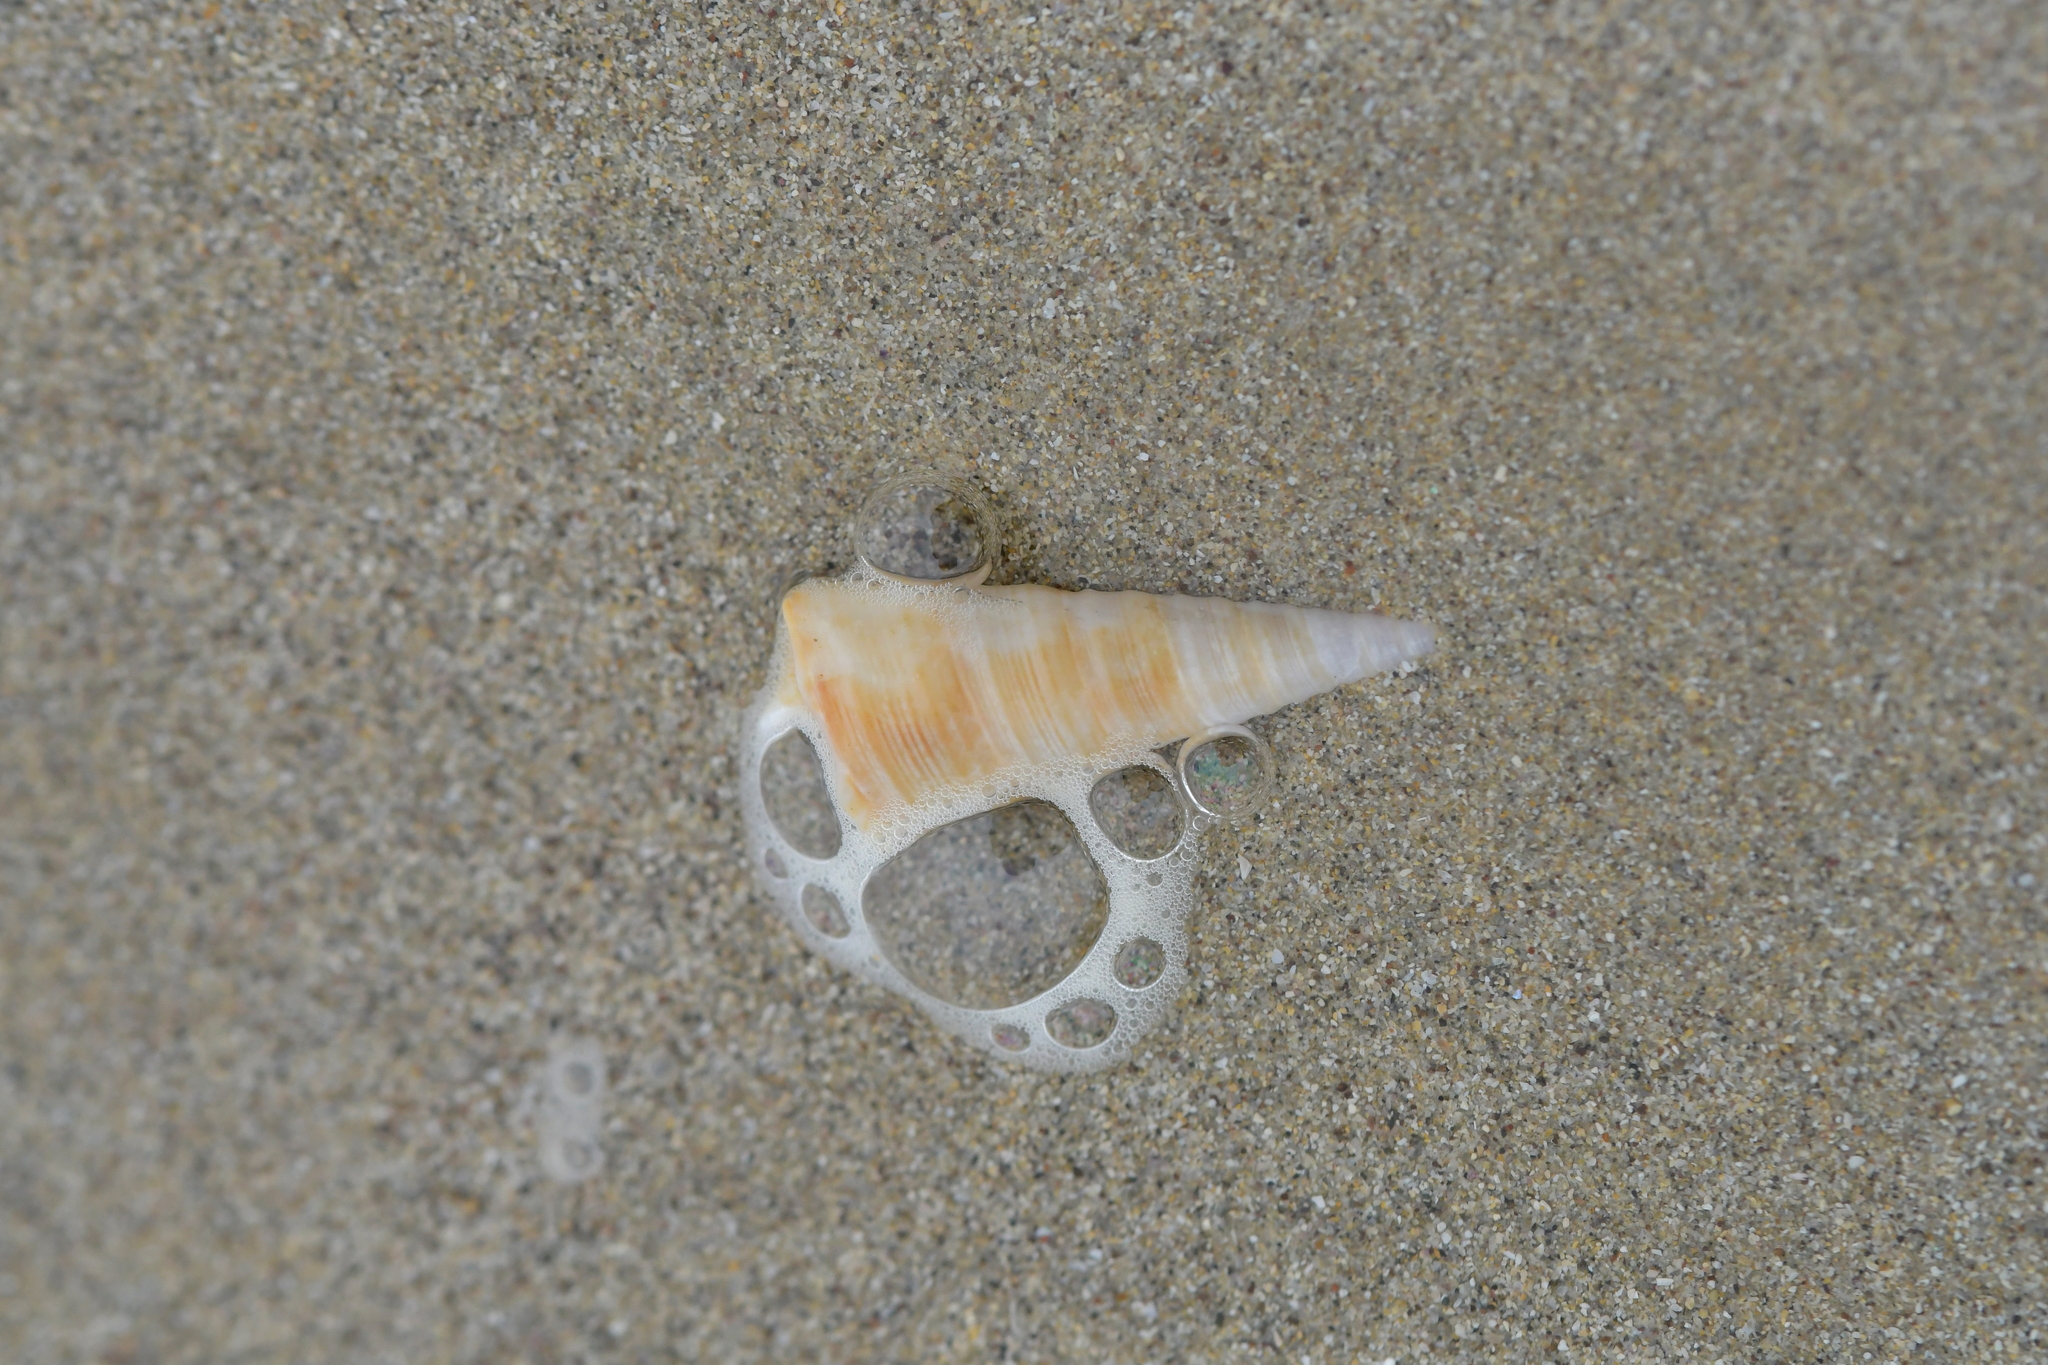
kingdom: Animalia
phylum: Mollusca
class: Gastropoda
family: Turritellidae
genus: Maoricolpus
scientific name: Maoricolpus roseus
